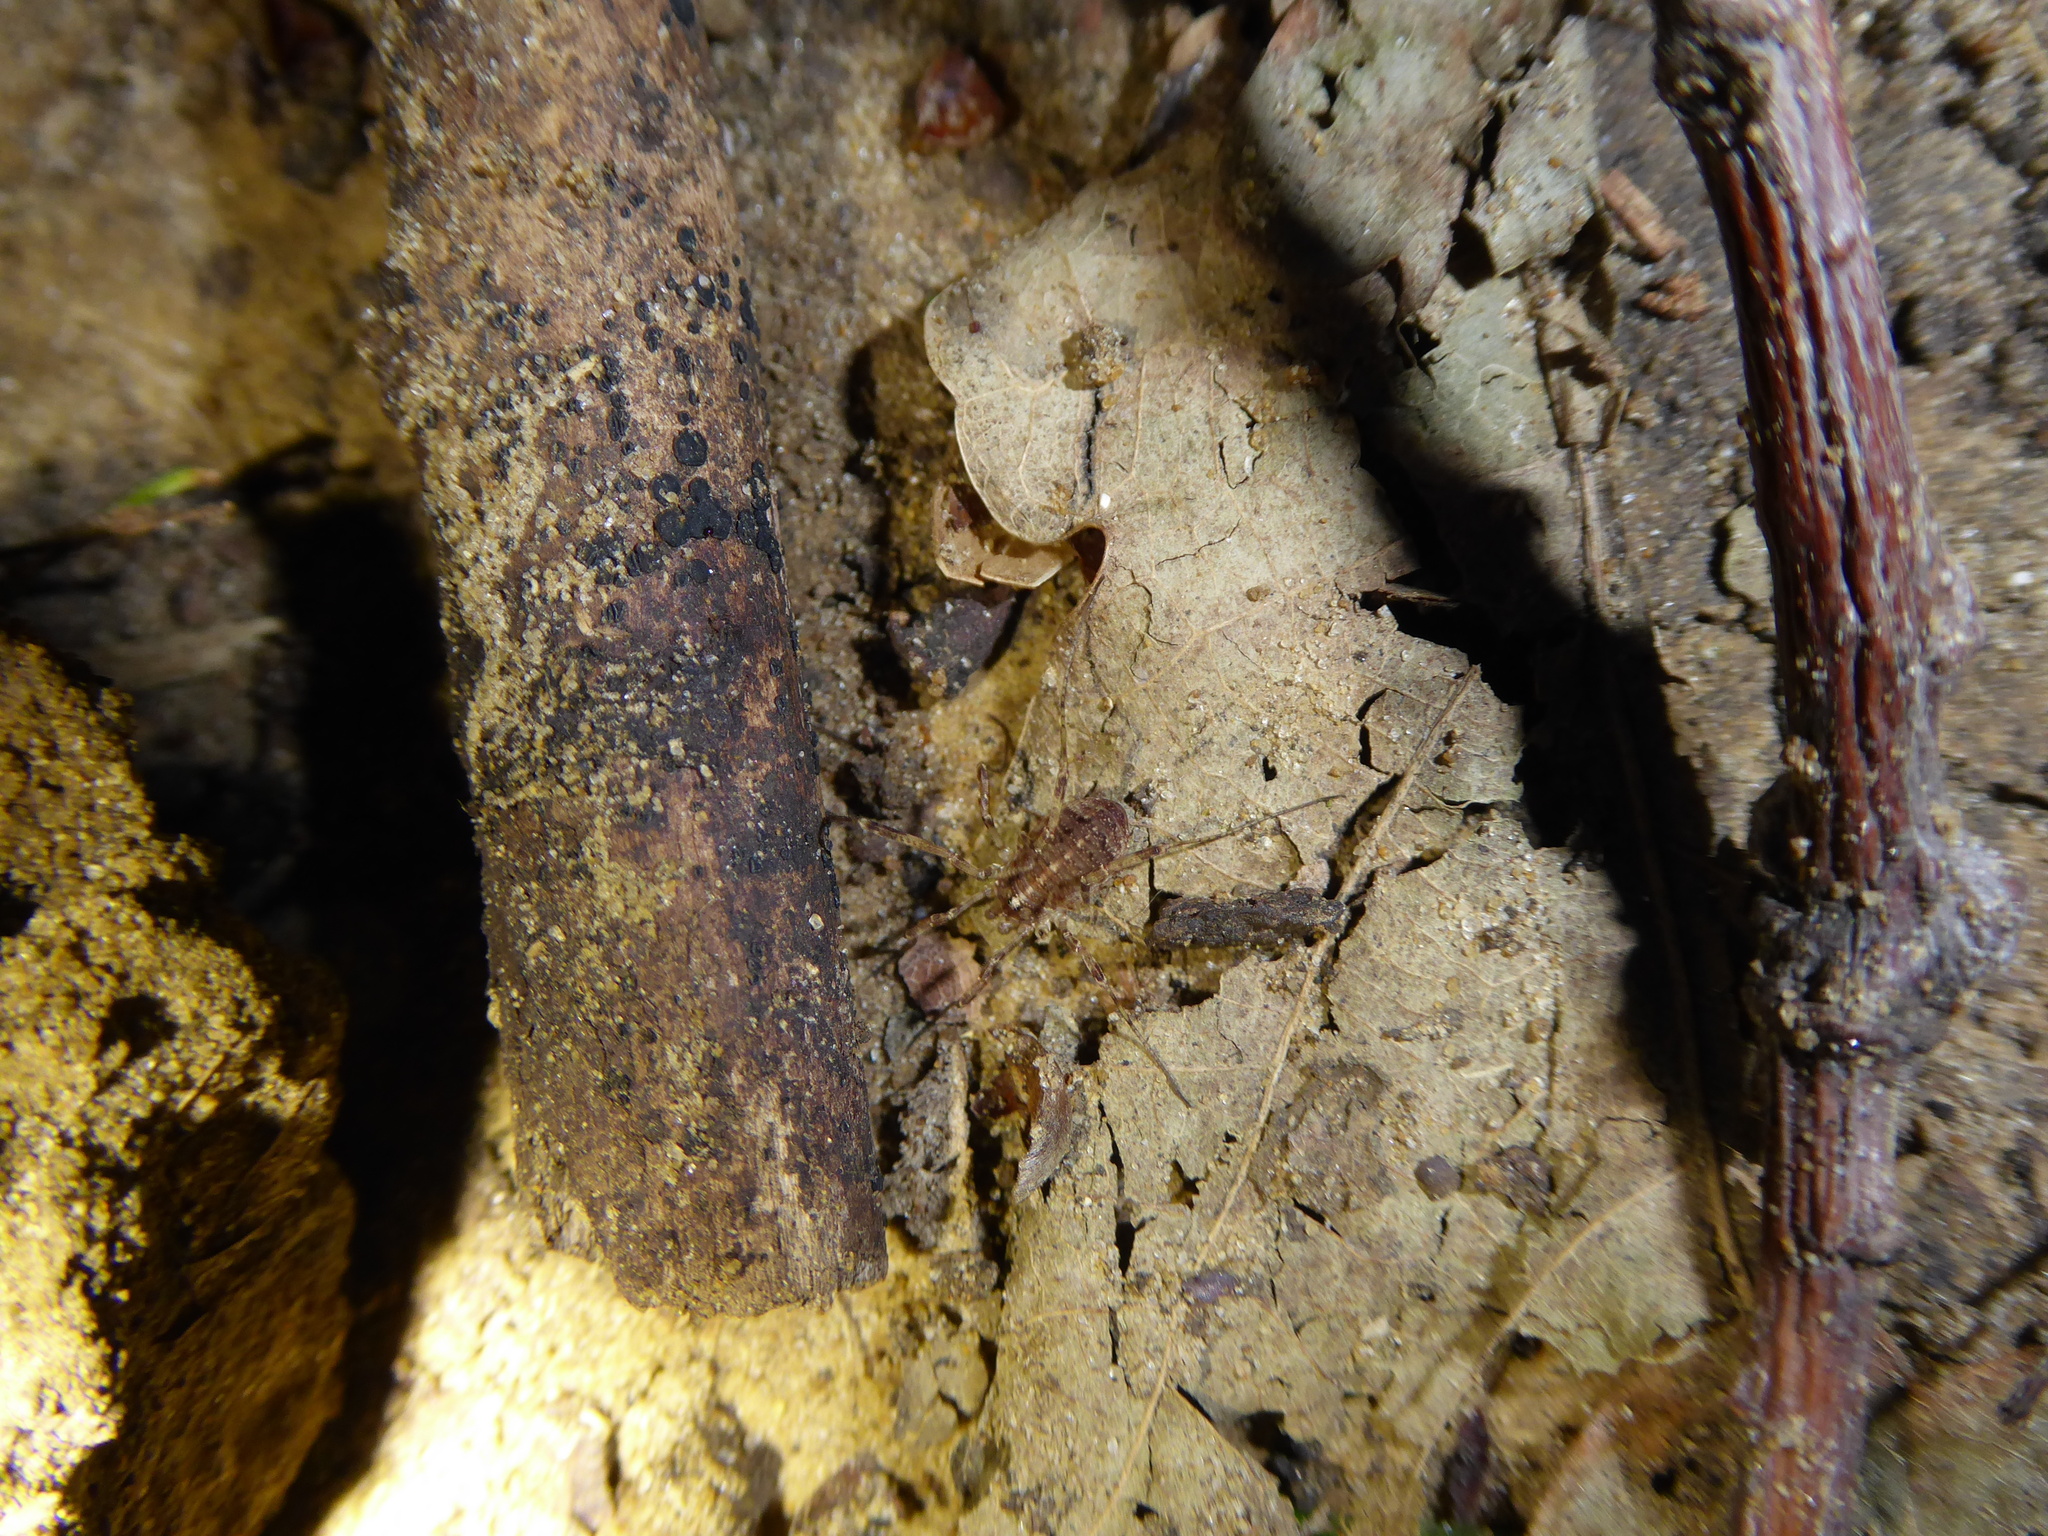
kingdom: Animalia
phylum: Arthropoda
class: Arachnida
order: Opiliones
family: Phalangiidae
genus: Paroligolophus
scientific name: Paroligolophus agrestis
